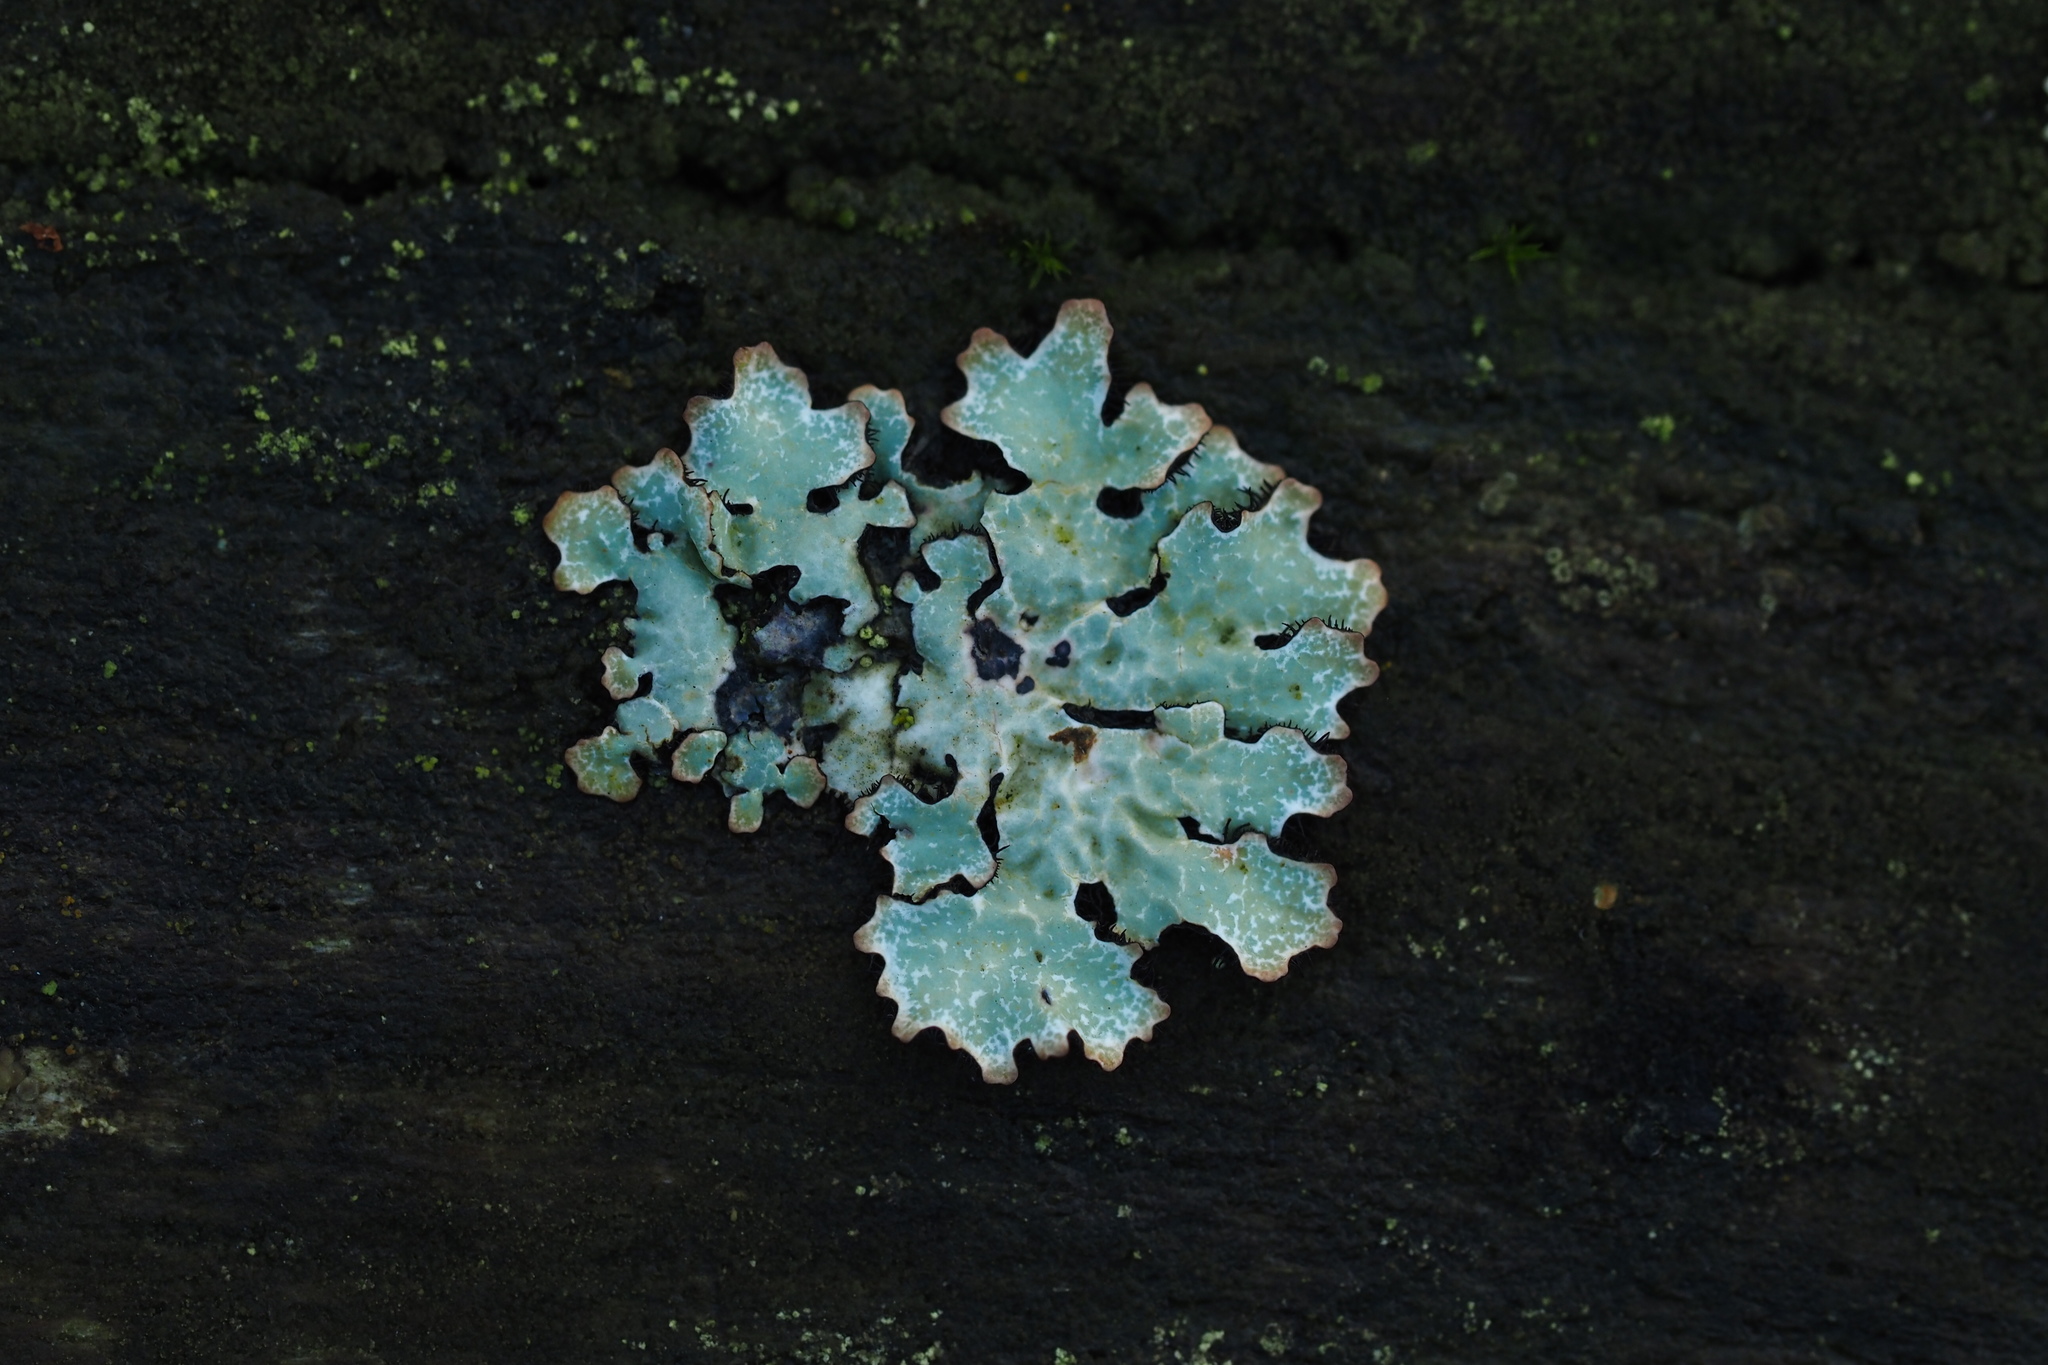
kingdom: Fungi
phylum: Ascomycota
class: Lecanoromycetes
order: Lecanorales
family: Parmeliaceae
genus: Parmelia
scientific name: Parmelia sulcata
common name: Netted shield lichen
